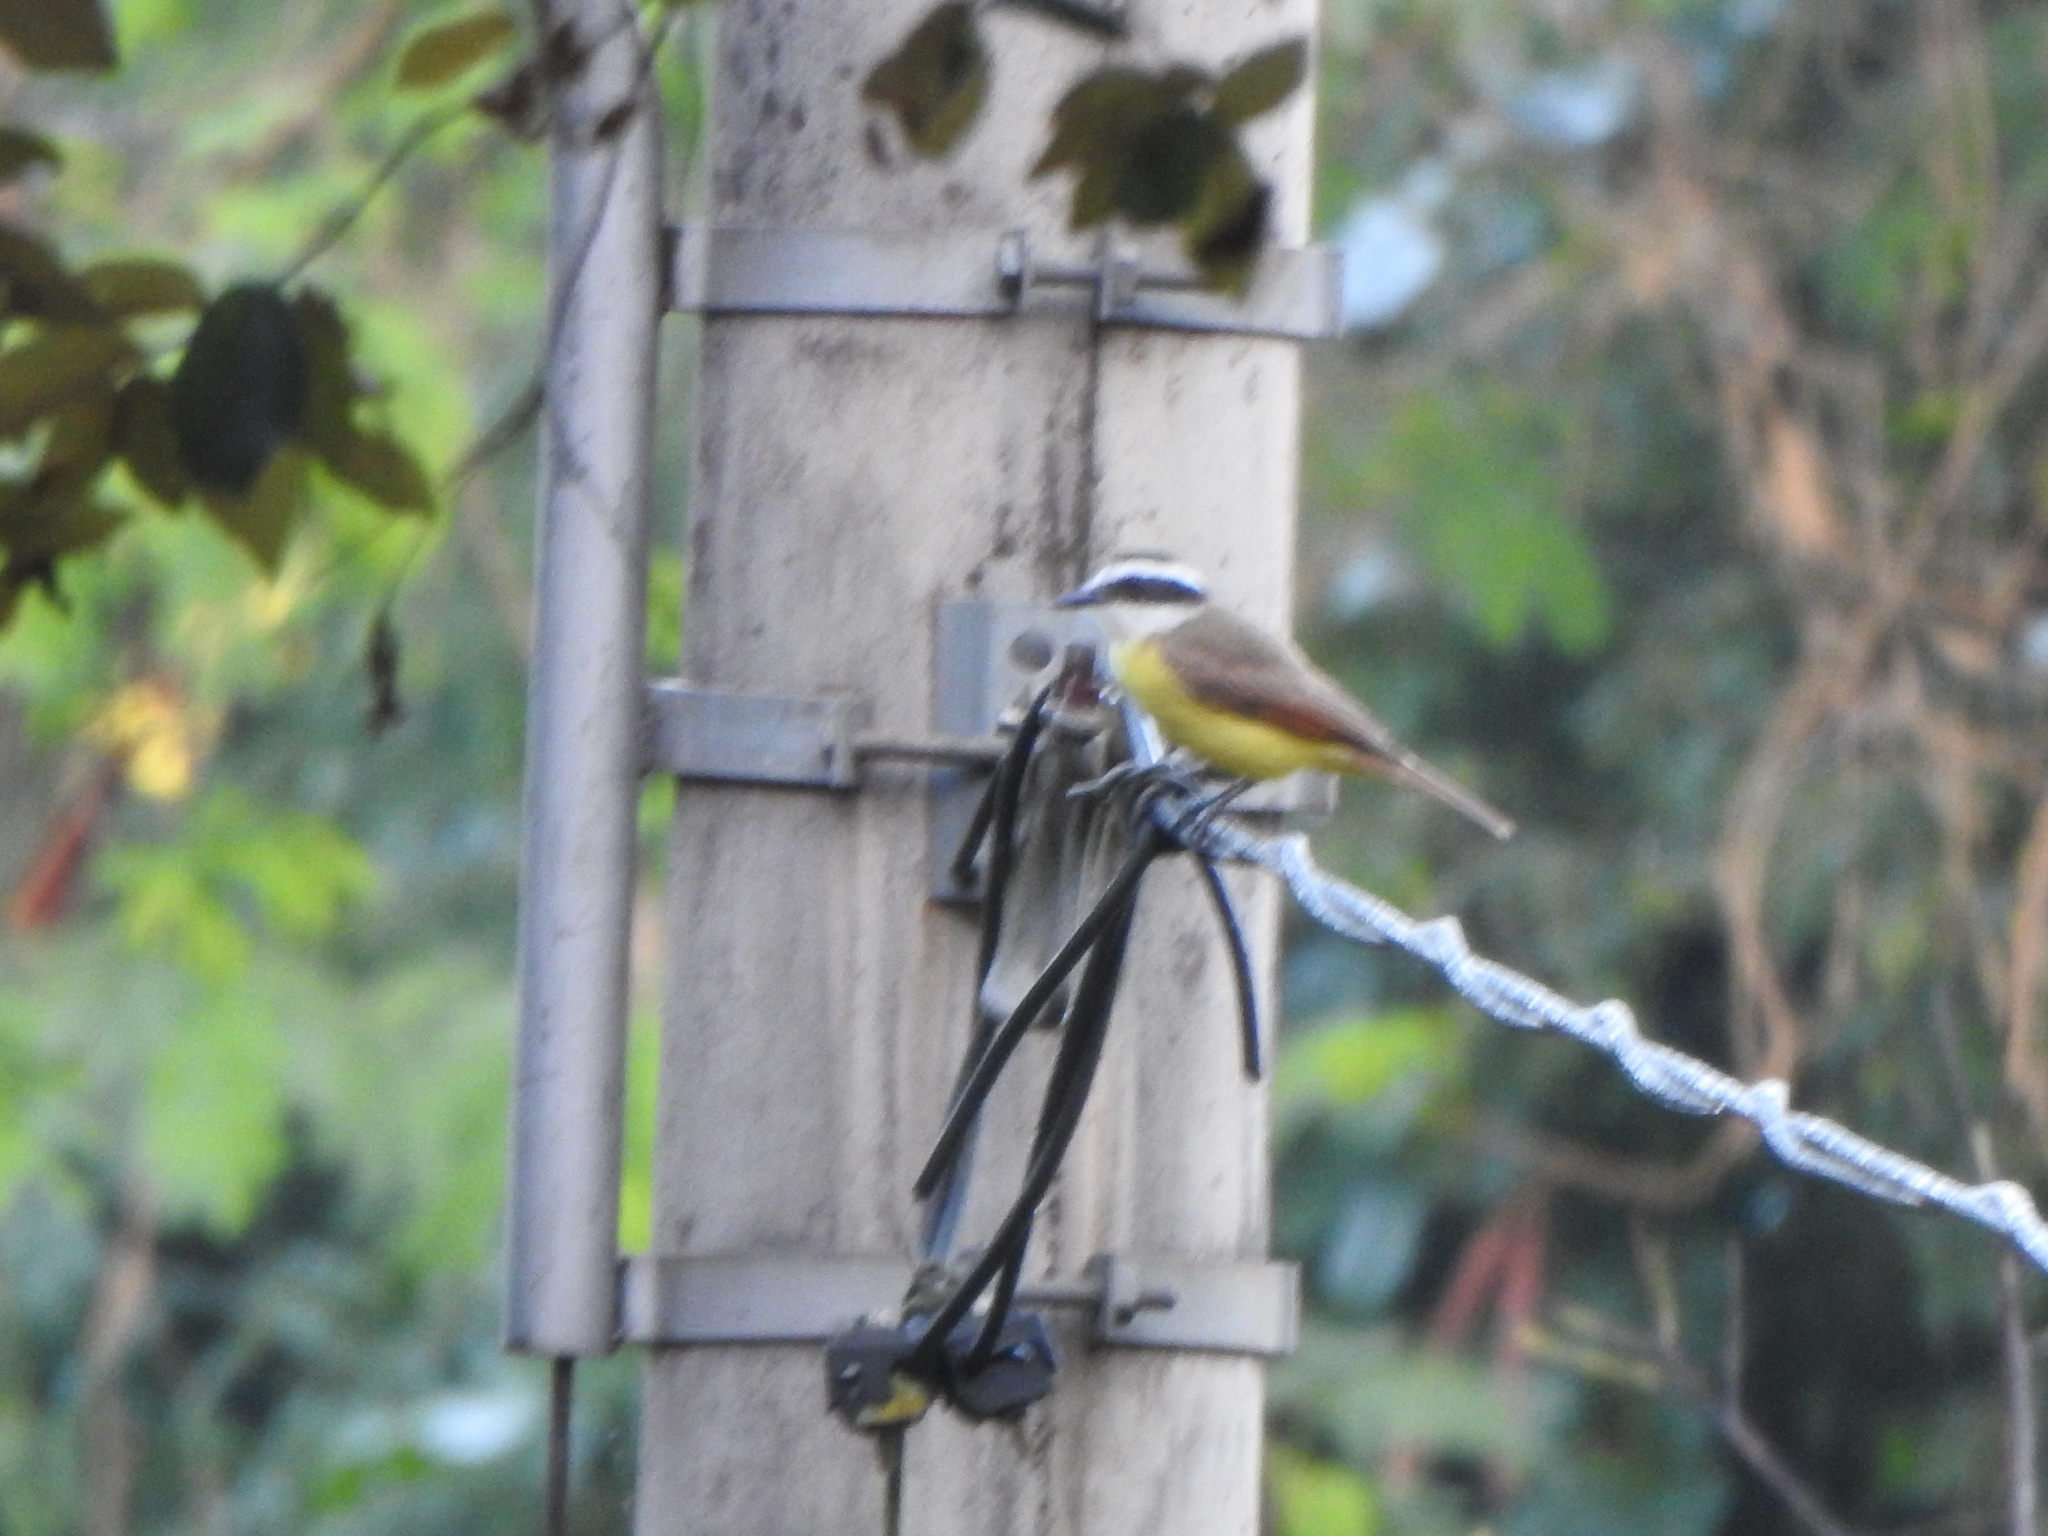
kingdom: Animalia
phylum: Chordata
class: Aves
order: Passeriformes
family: Tyrannidae
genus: Pitangus
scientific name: Pitangus sulphuratus
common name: Great kiskadee
